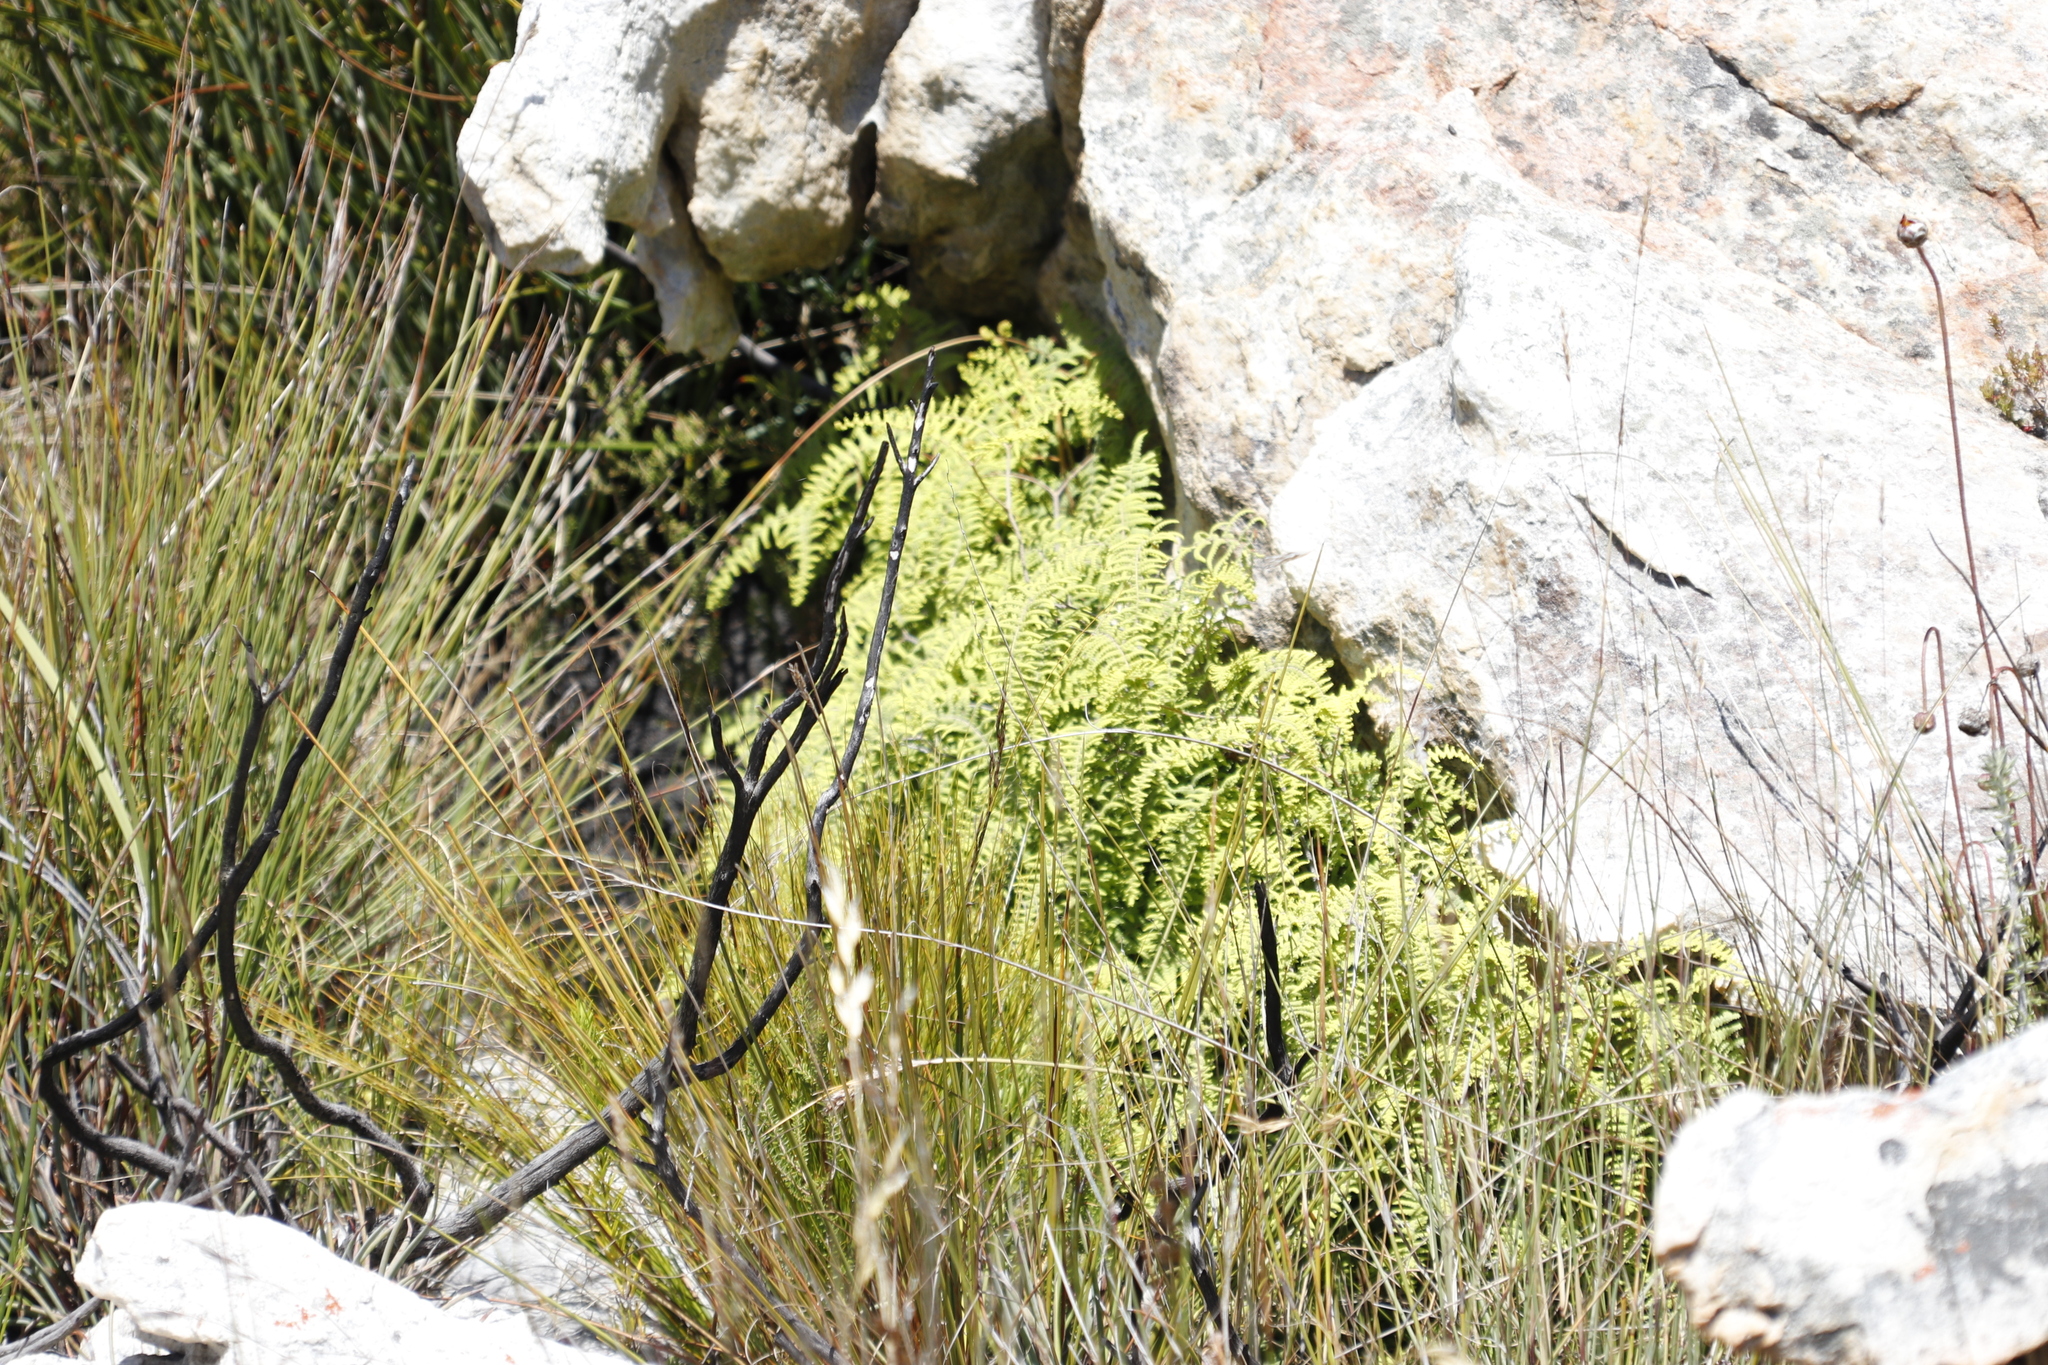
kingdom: Plantae
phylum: Tracheophyta
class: Polypodiopsida
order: Gleicheniales
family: Gleicheniaceae
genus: Gleichenia
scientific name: Gleichenia polypodioides
